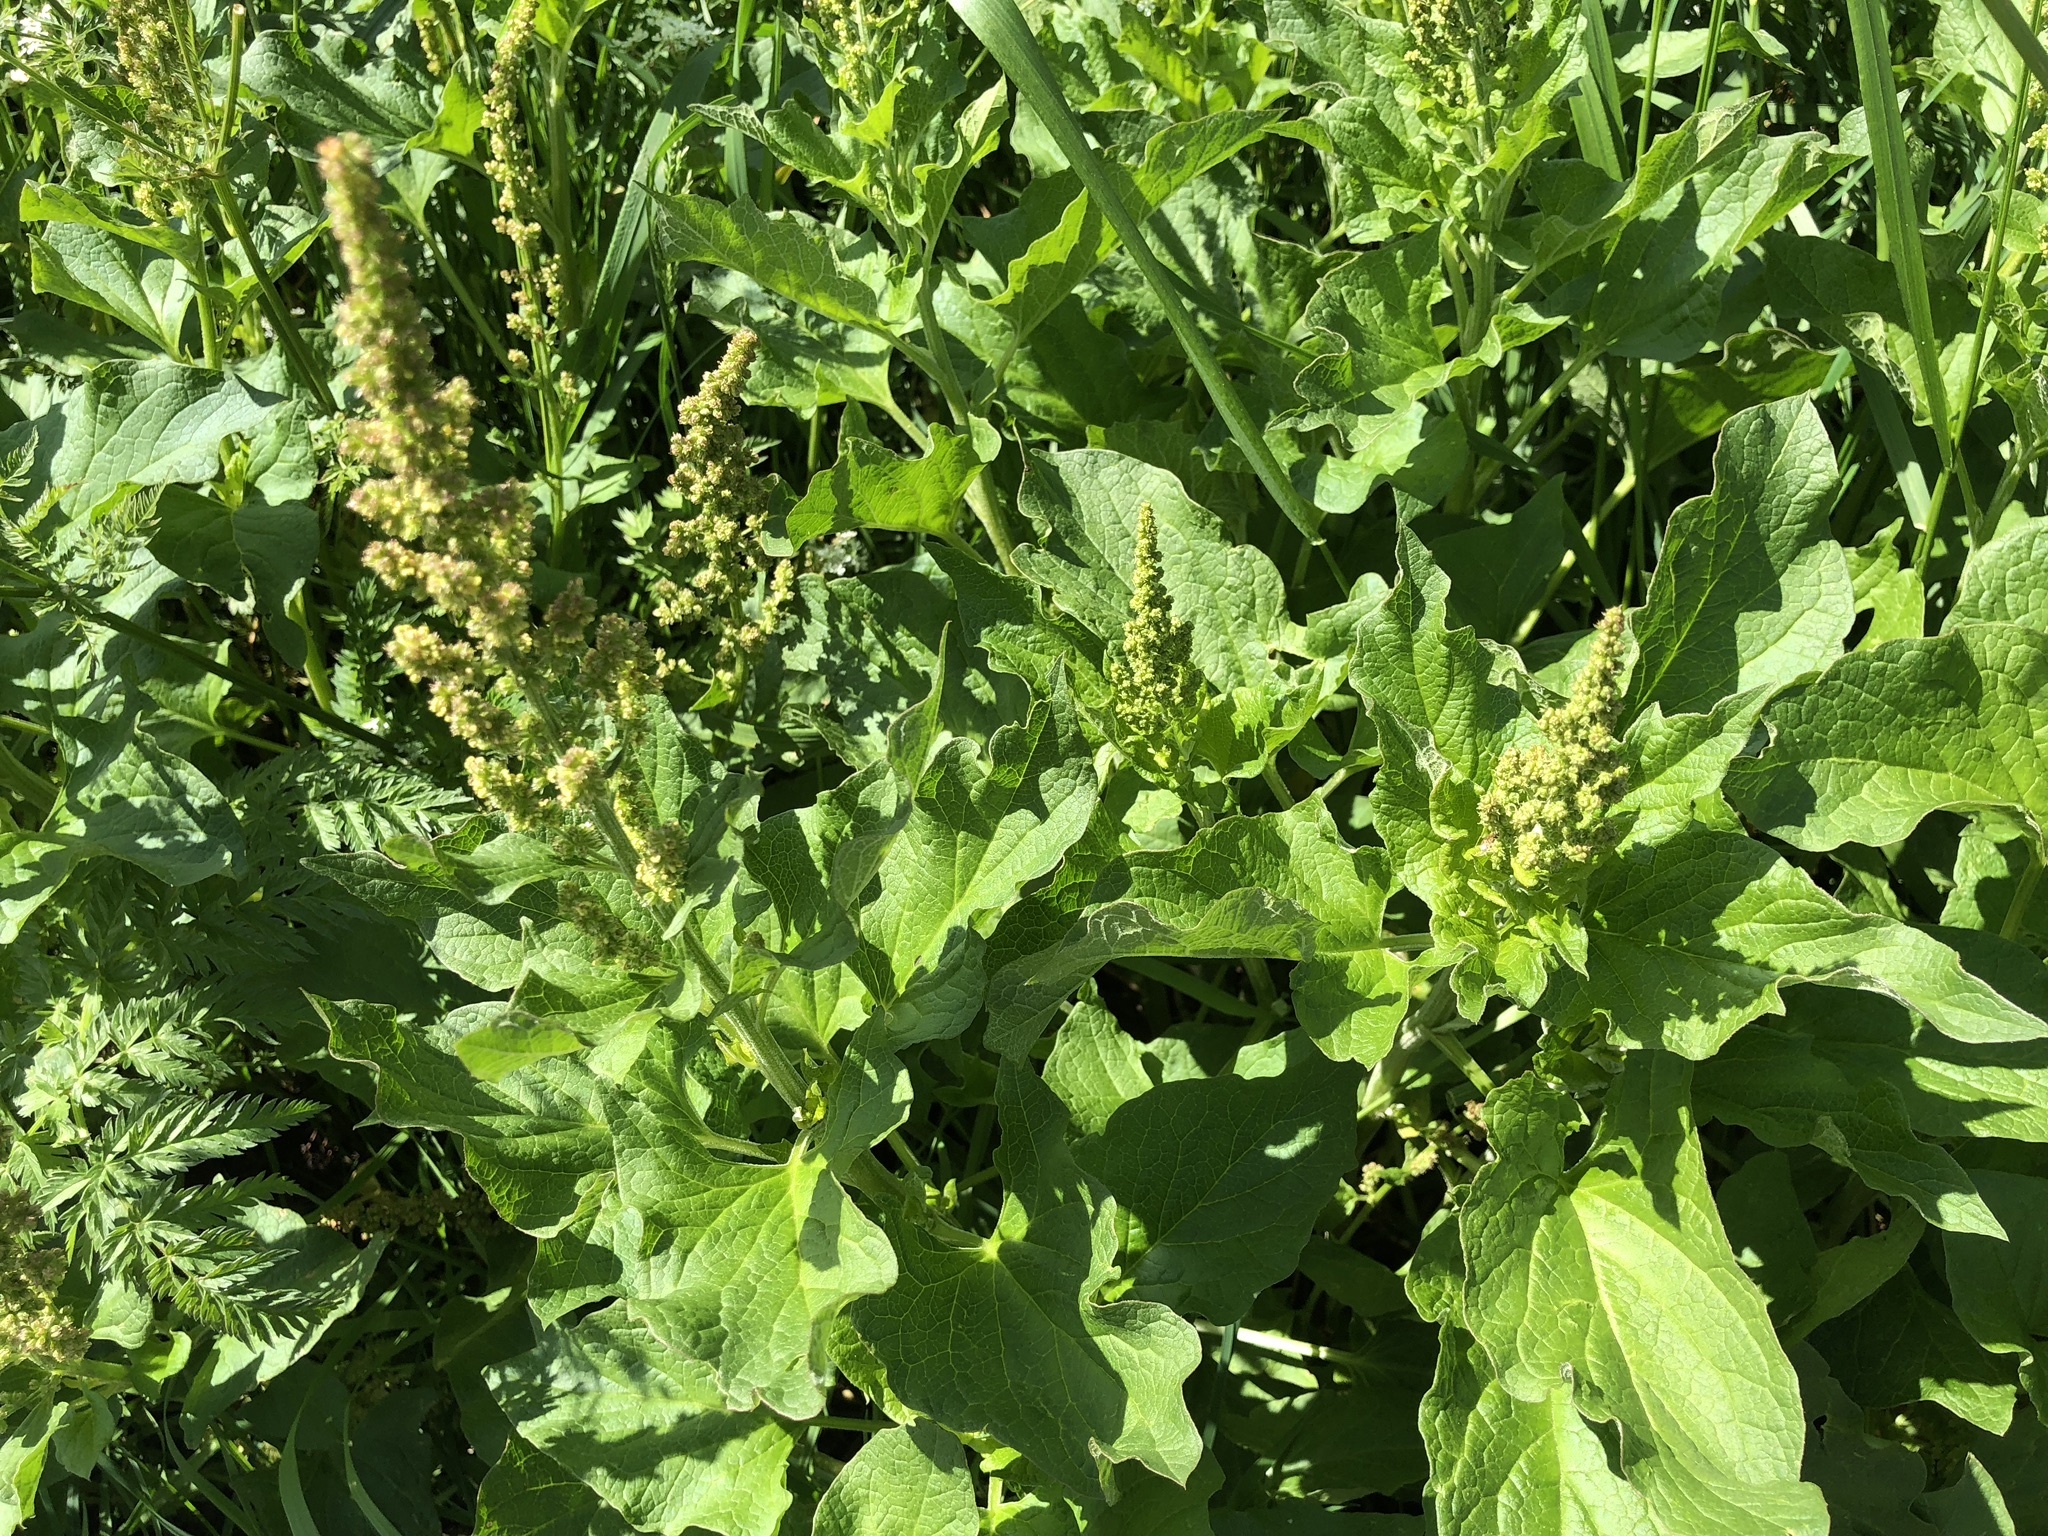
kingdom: Plantae
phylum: Tracheophyta
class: Magnoliopsida
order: Caryophyllales
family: Amaranthaceae
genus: Blitum
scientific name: Blitum bonus-henricus
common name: Good king henry
